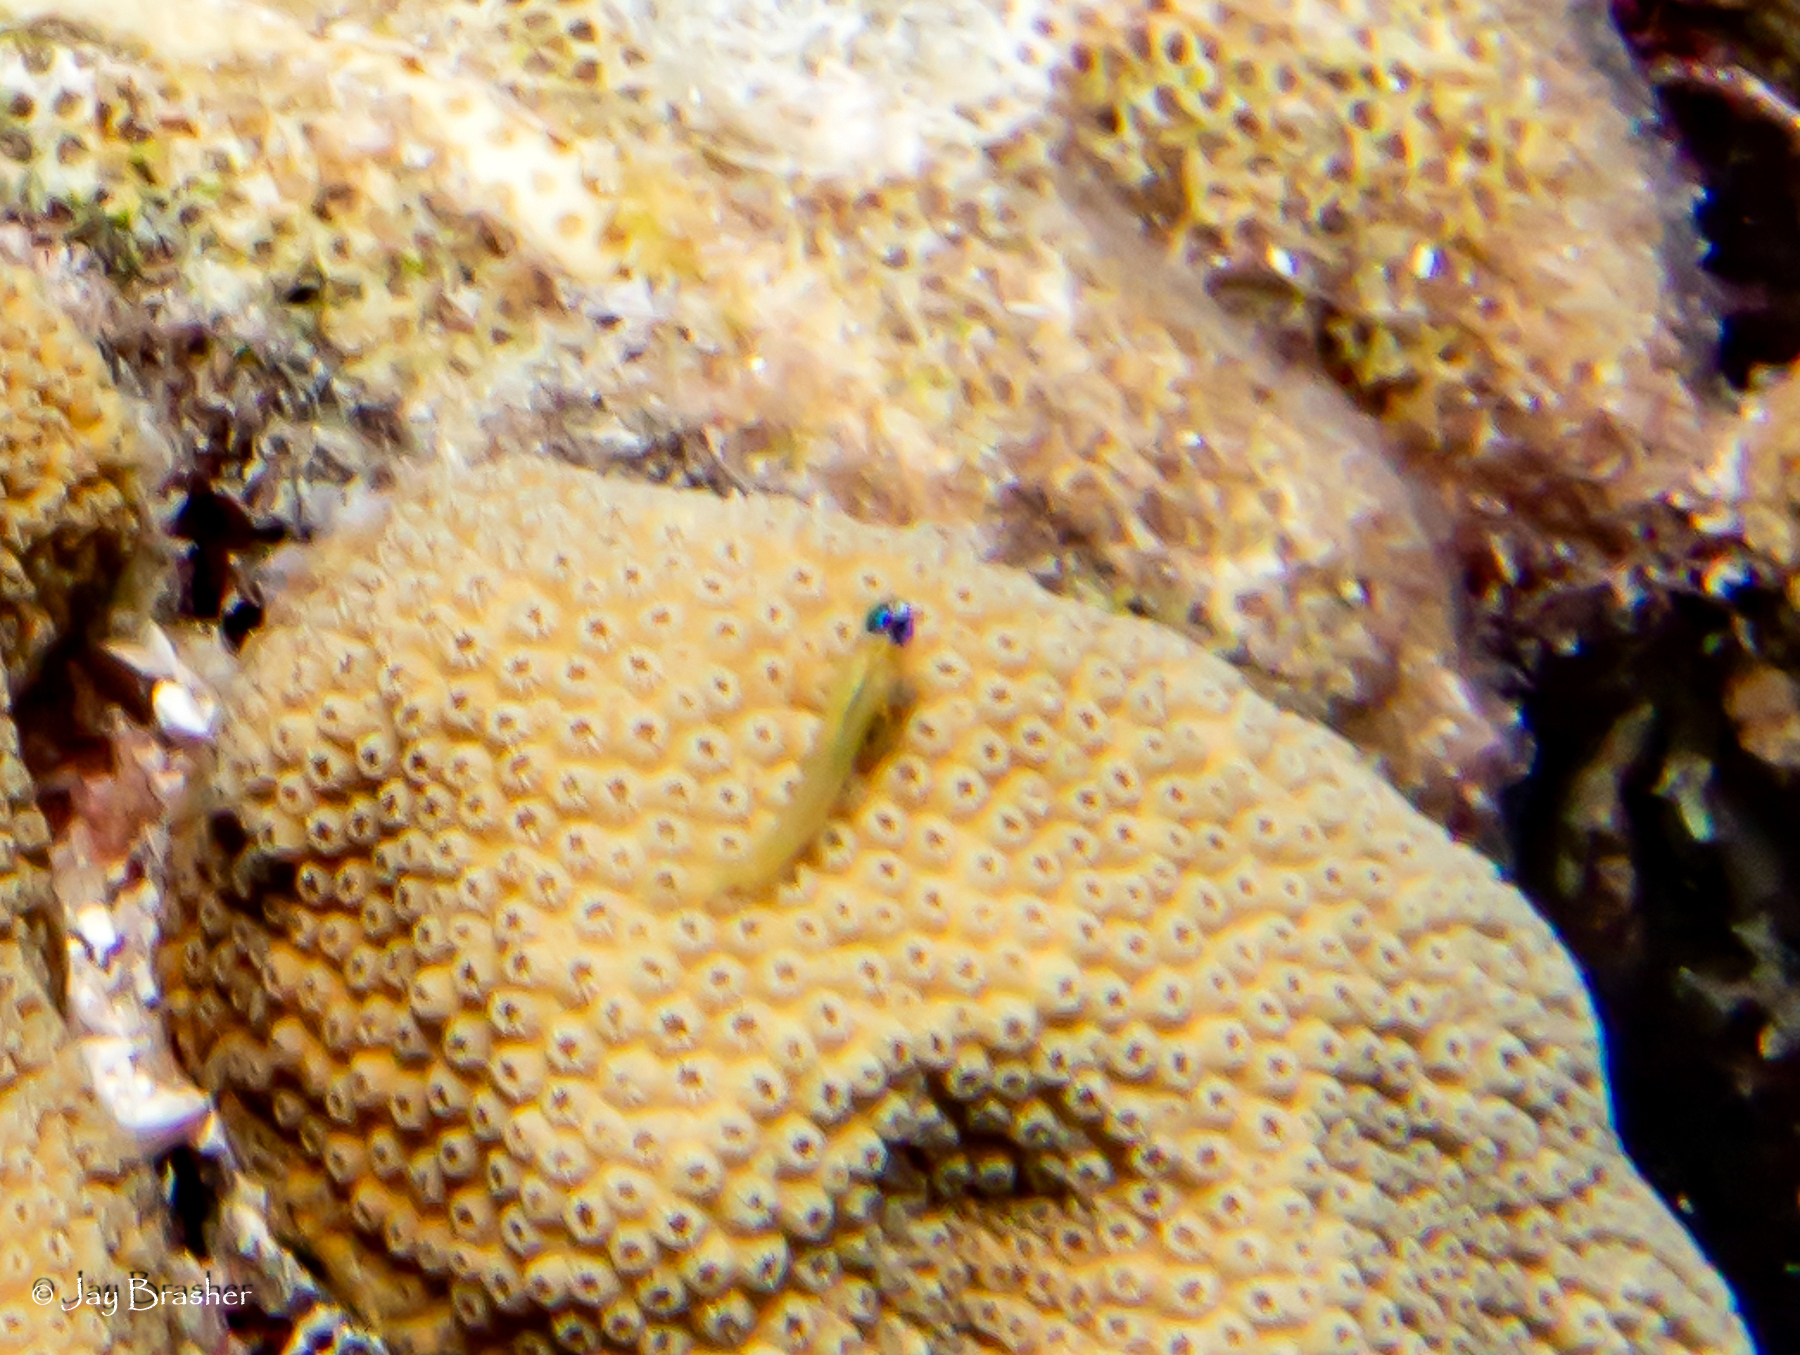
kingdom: Animalia
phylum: Chordata
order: Perciformes
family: Gobiidae
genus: Coryphopterus
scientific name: Coryphopterus lipernes
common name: Peppermint goby
